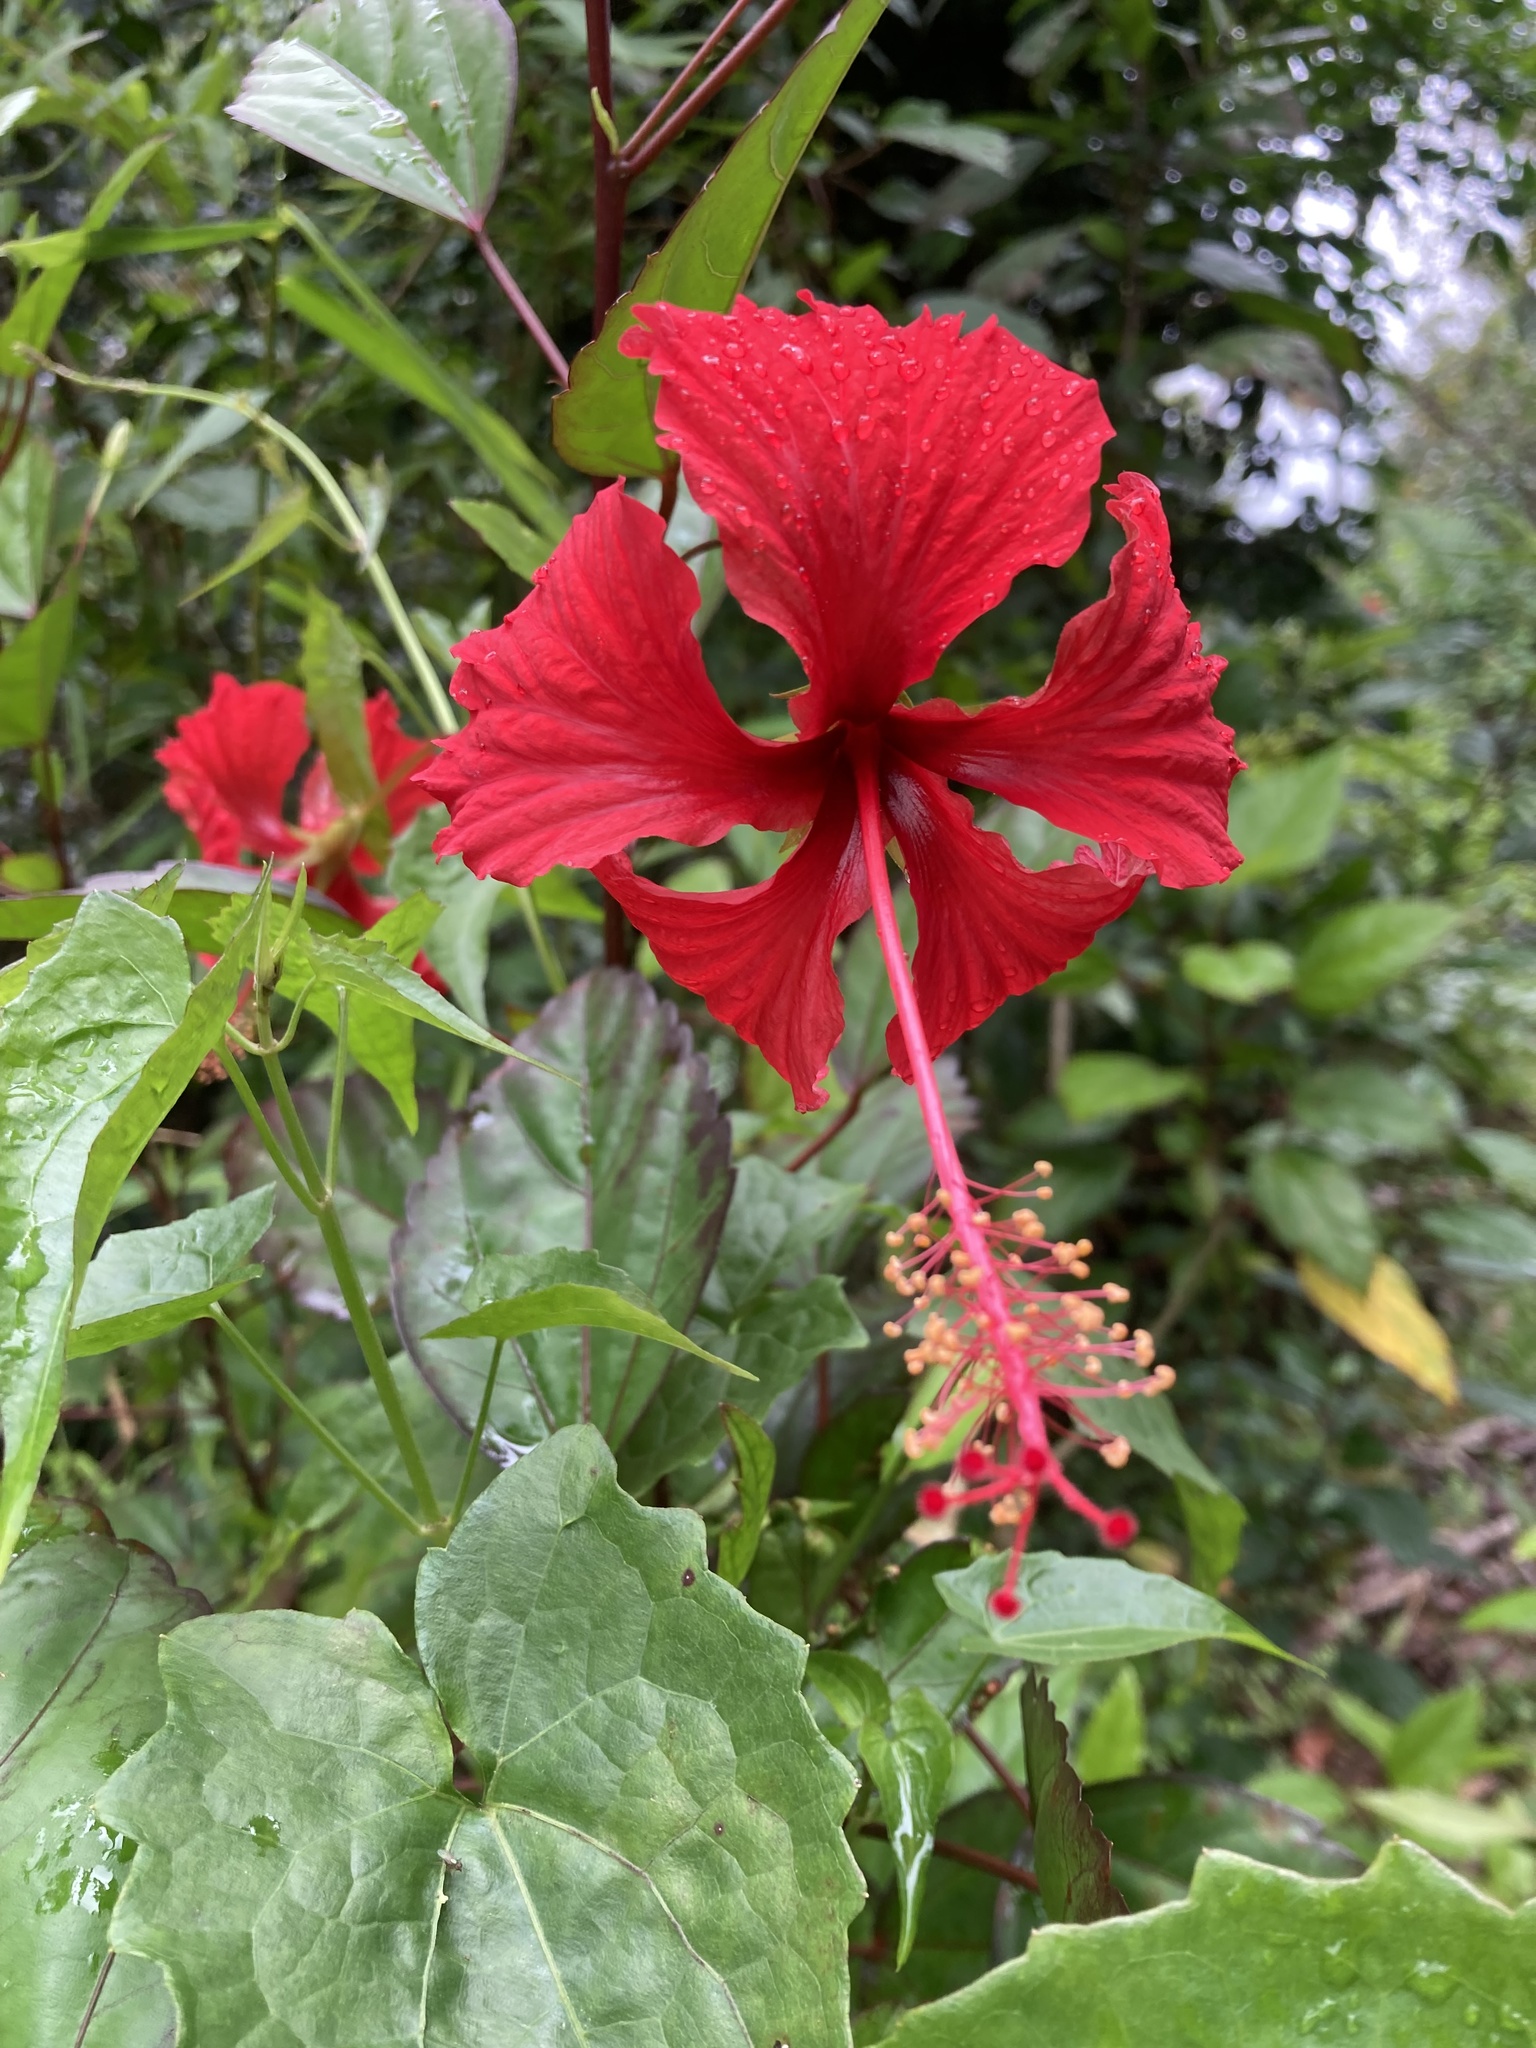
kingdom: Plantae
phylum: Tracheophyta
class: Magnoliopsida
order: Malvales
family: Malvaceae
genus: Hibiscus
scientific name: Hibiscus archeri
